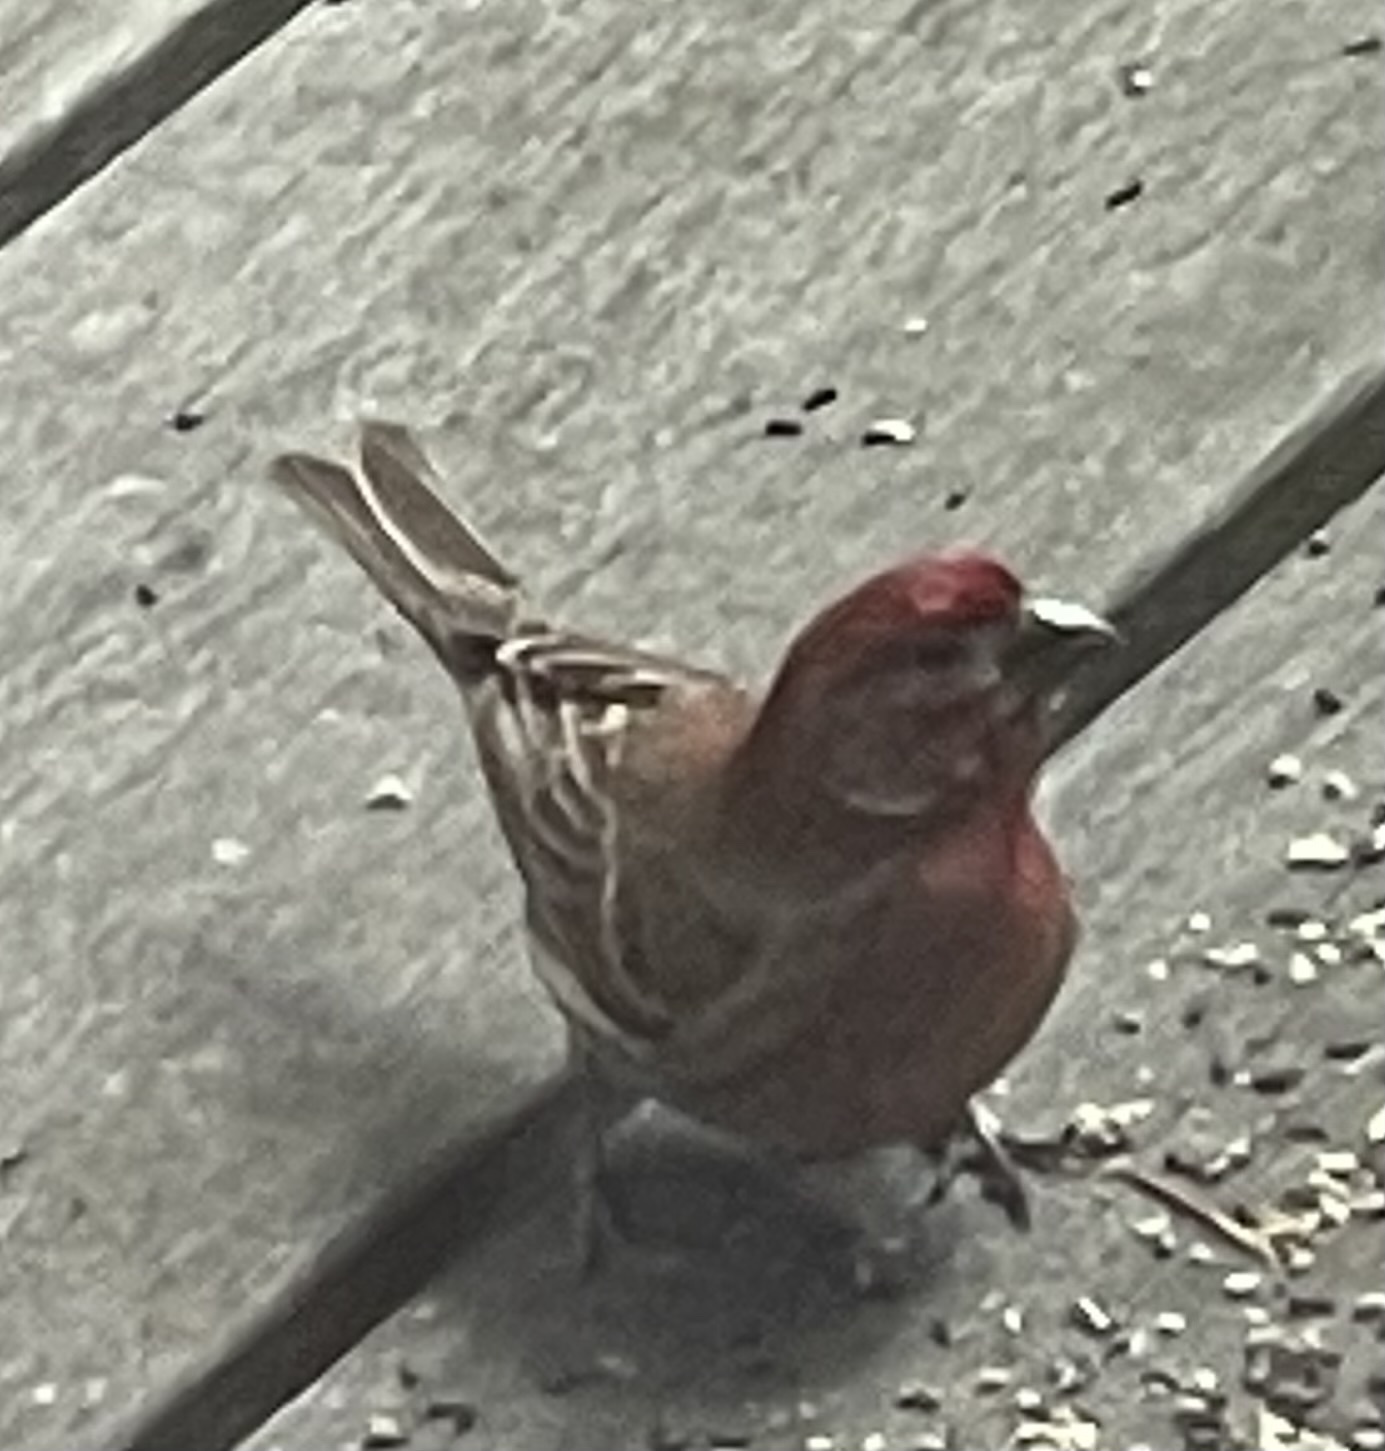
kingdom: Animalia
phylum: Chordata
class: Aves
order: Passeriformes
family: Fringillidae
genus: Haemorhous
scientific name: Haemorhous mexicanus
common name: House finch
